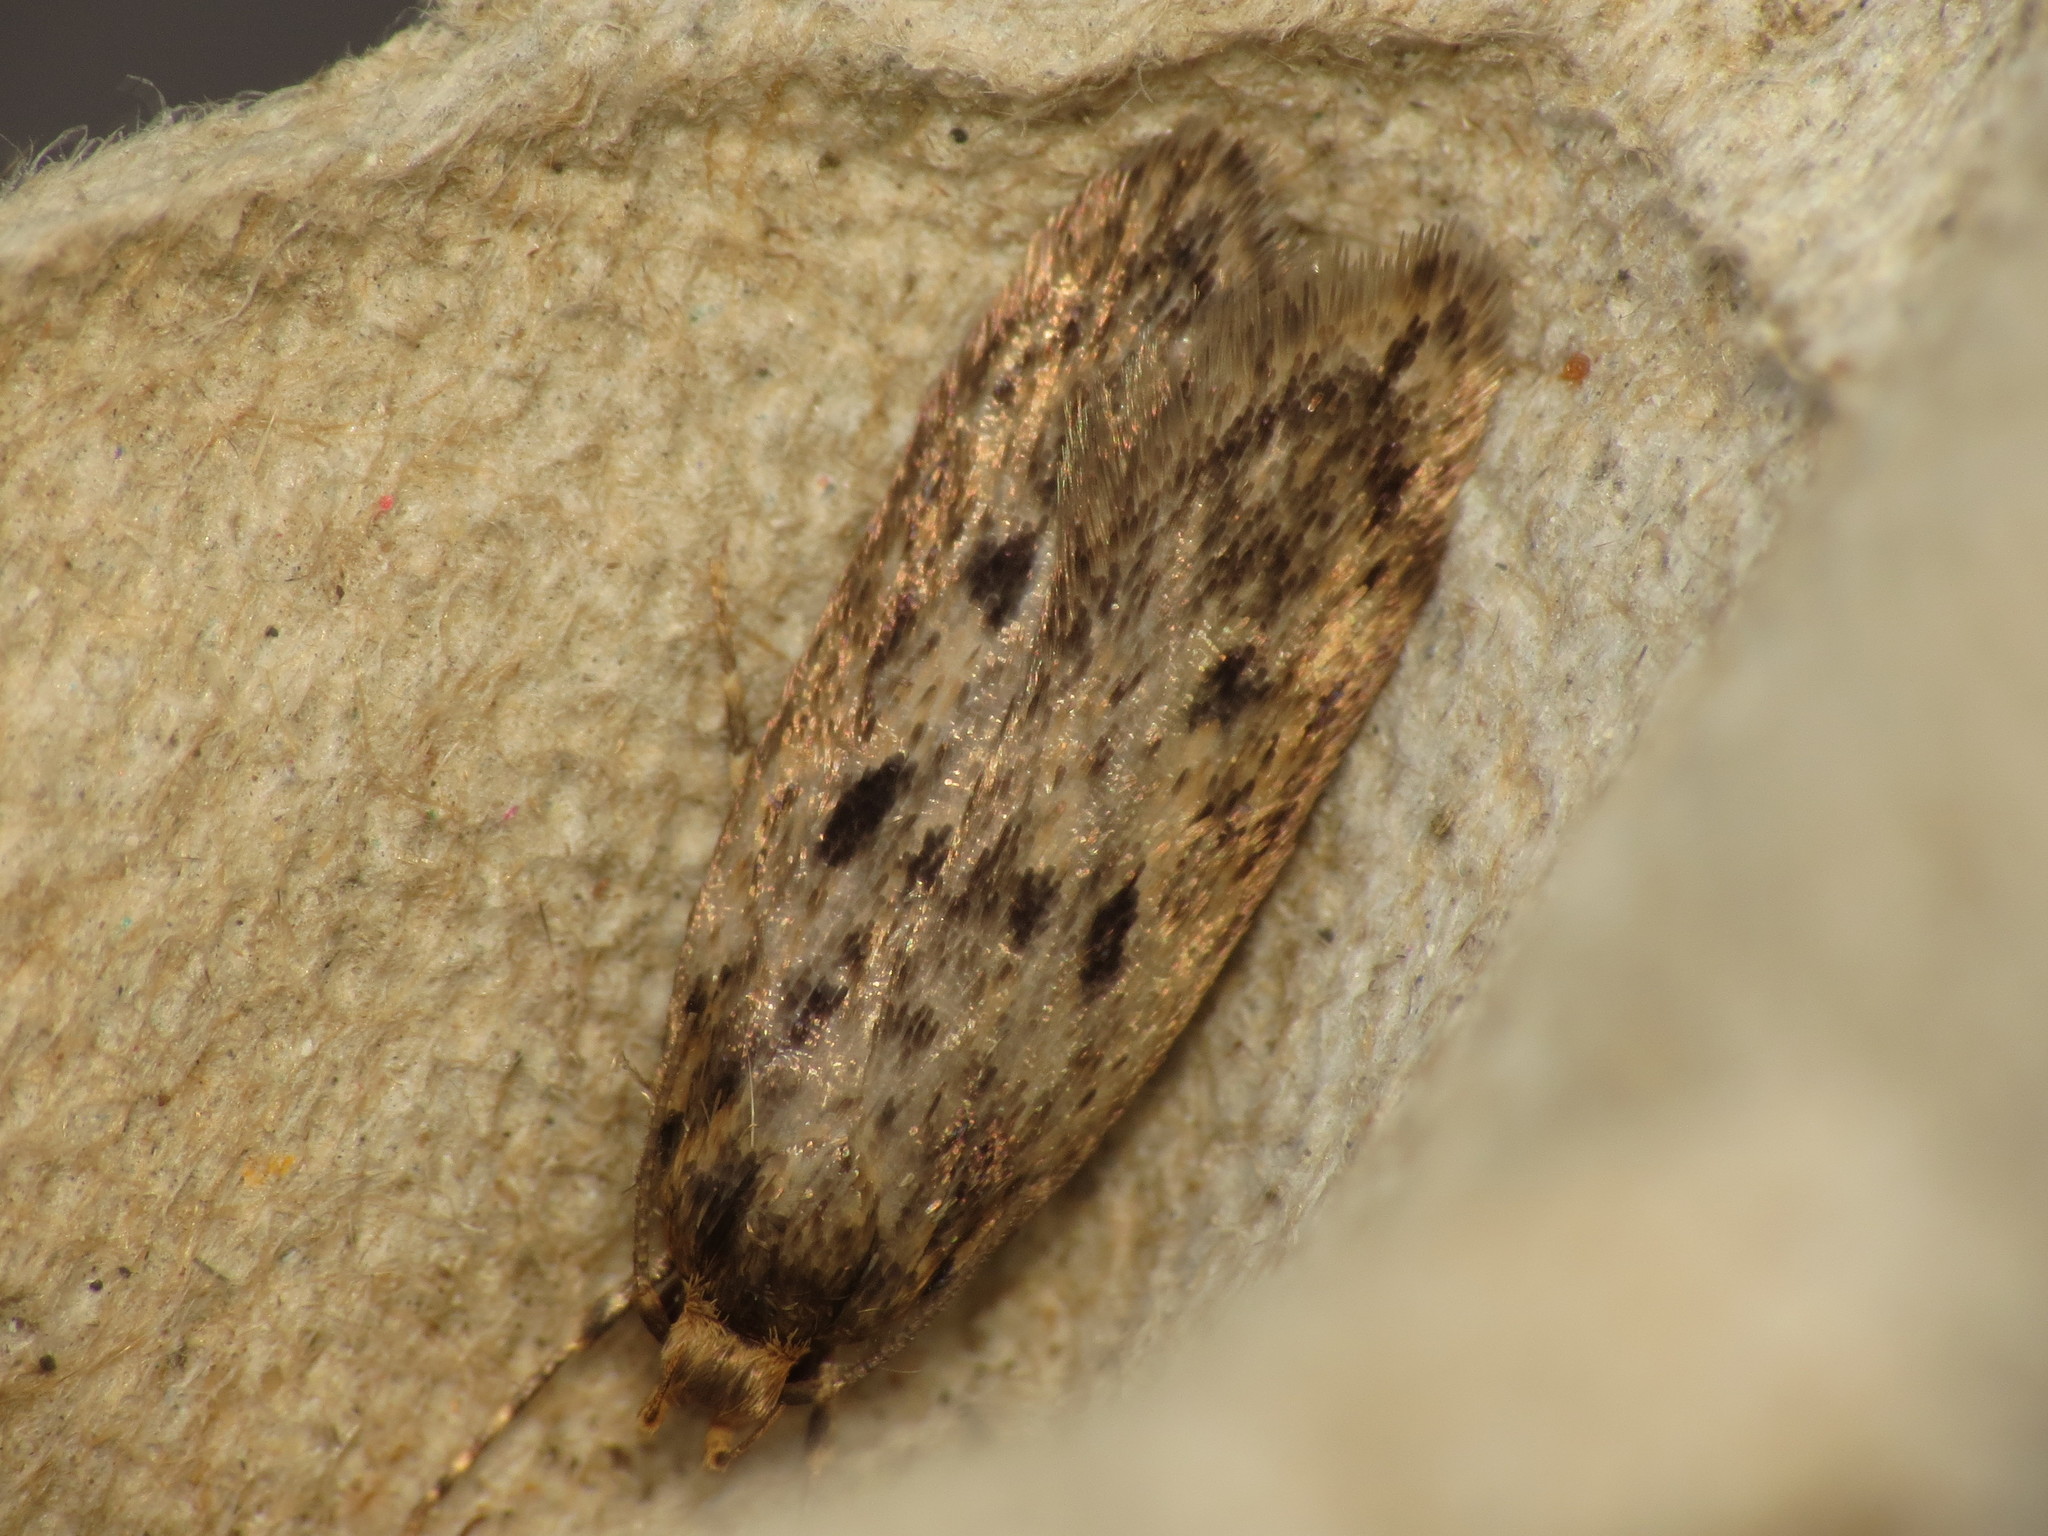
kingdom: Animalia
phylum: Arthropoda
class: Insecta
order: Lepidoptera
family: Oecophoridae
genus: Hofmannophila
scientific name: Hofmannophila pseudospretella
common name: Brown house moth
